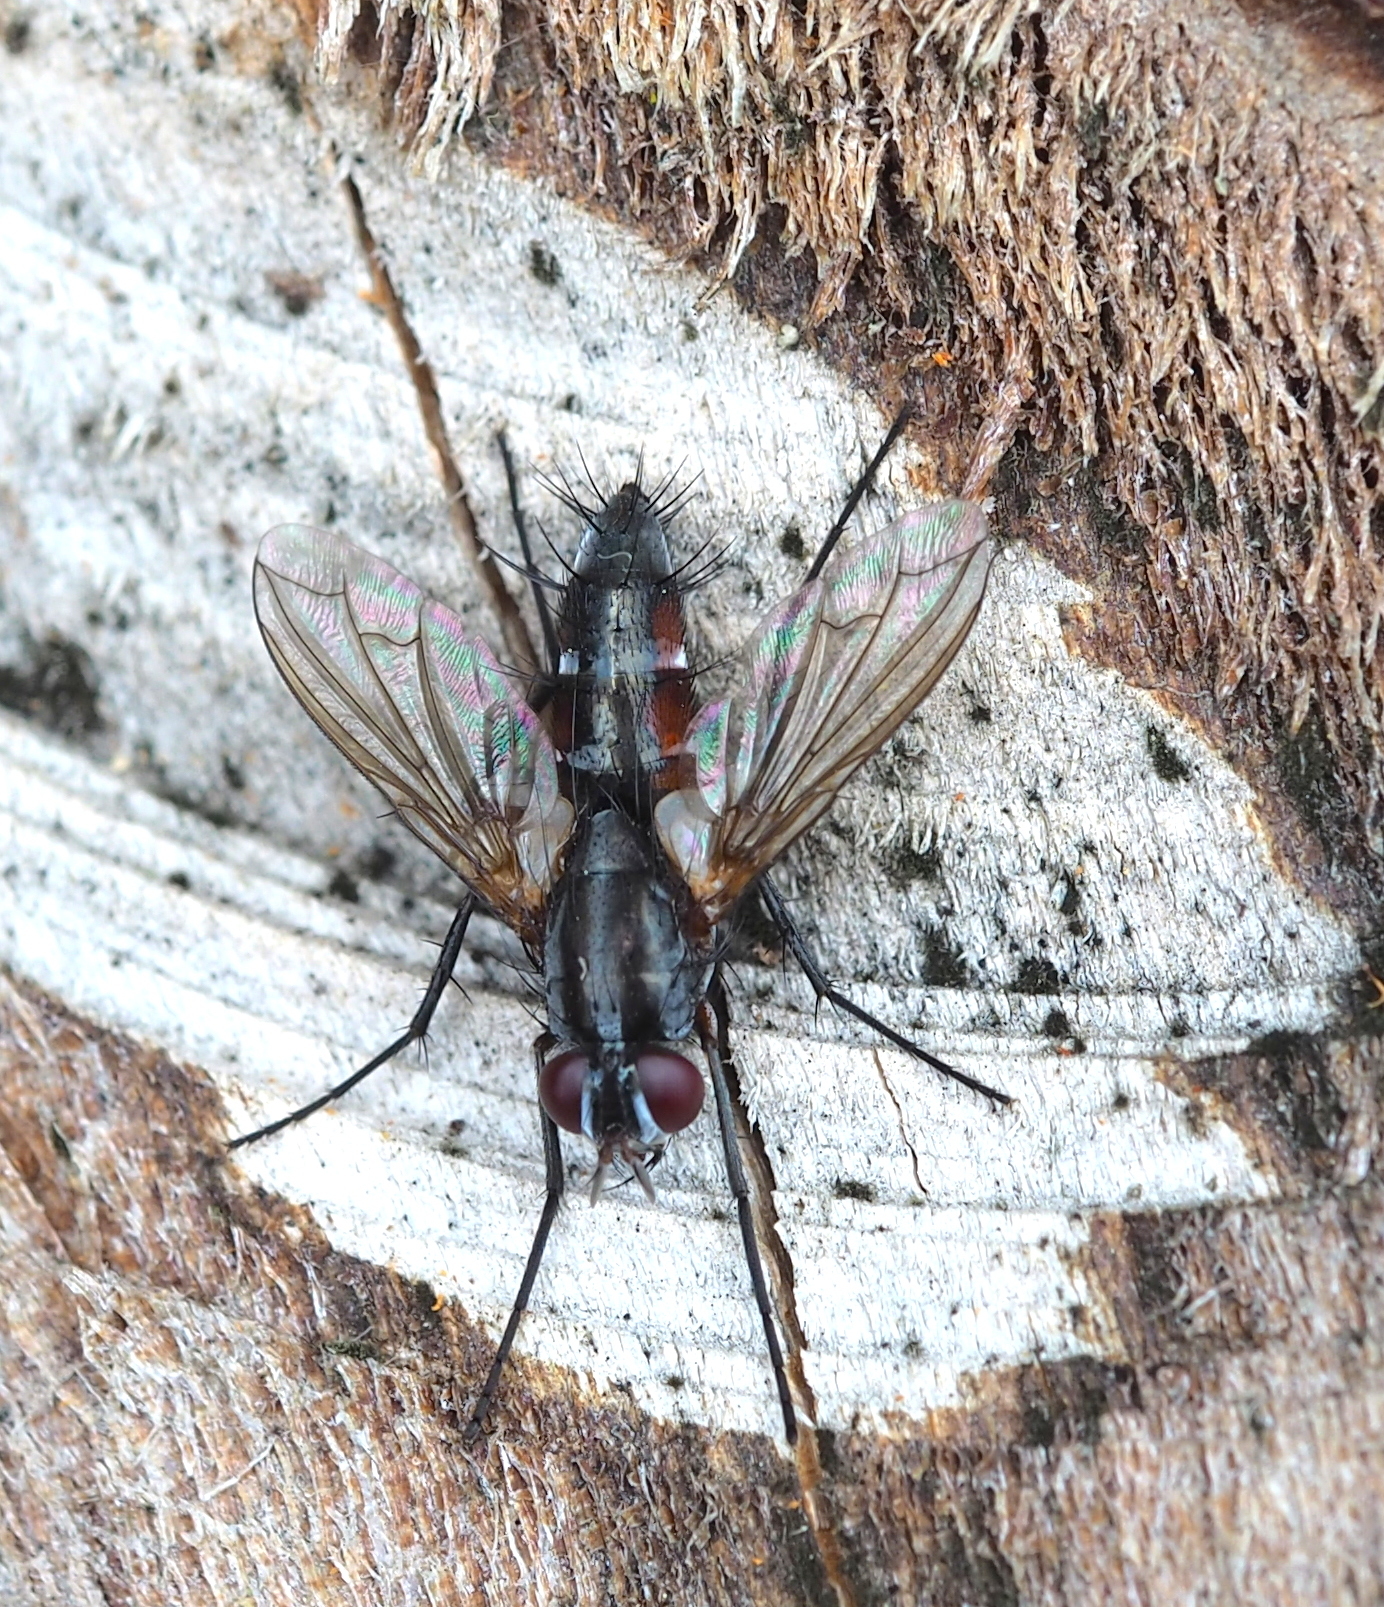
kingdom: Animalia
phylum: Arthropoda
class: Insecta
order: Diptera
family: Tachinidae
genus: Mintho
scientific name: Mintho rufiventris
